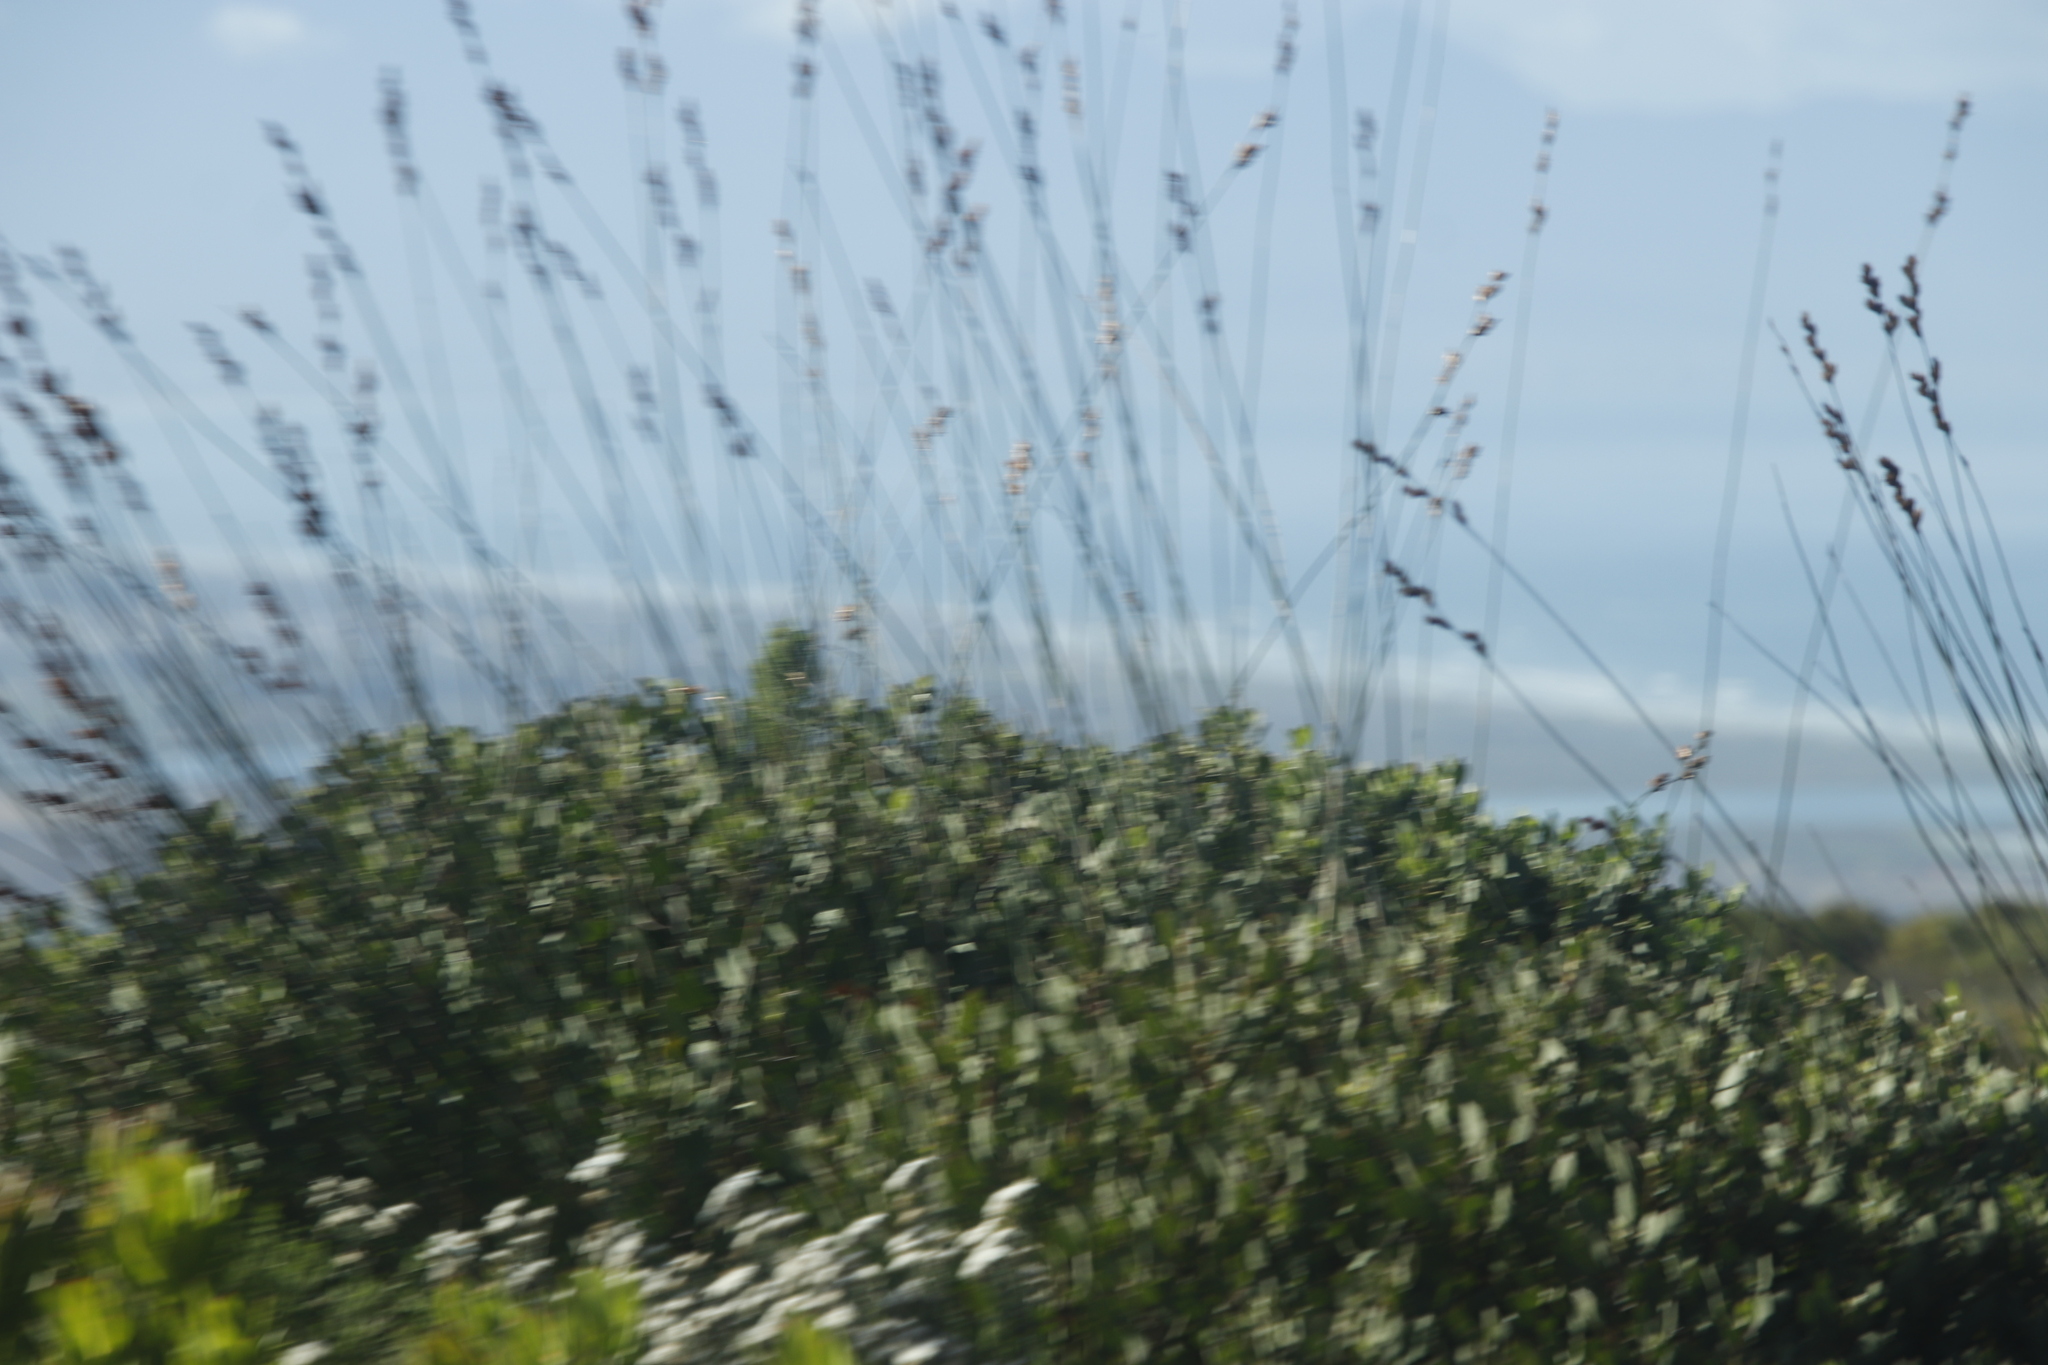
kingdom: Plantae
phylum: Tracheophyta
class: Liliopsida
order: Poales
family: Restionaceae
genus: Thamnochortus
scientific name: Thamnochortus insignis
